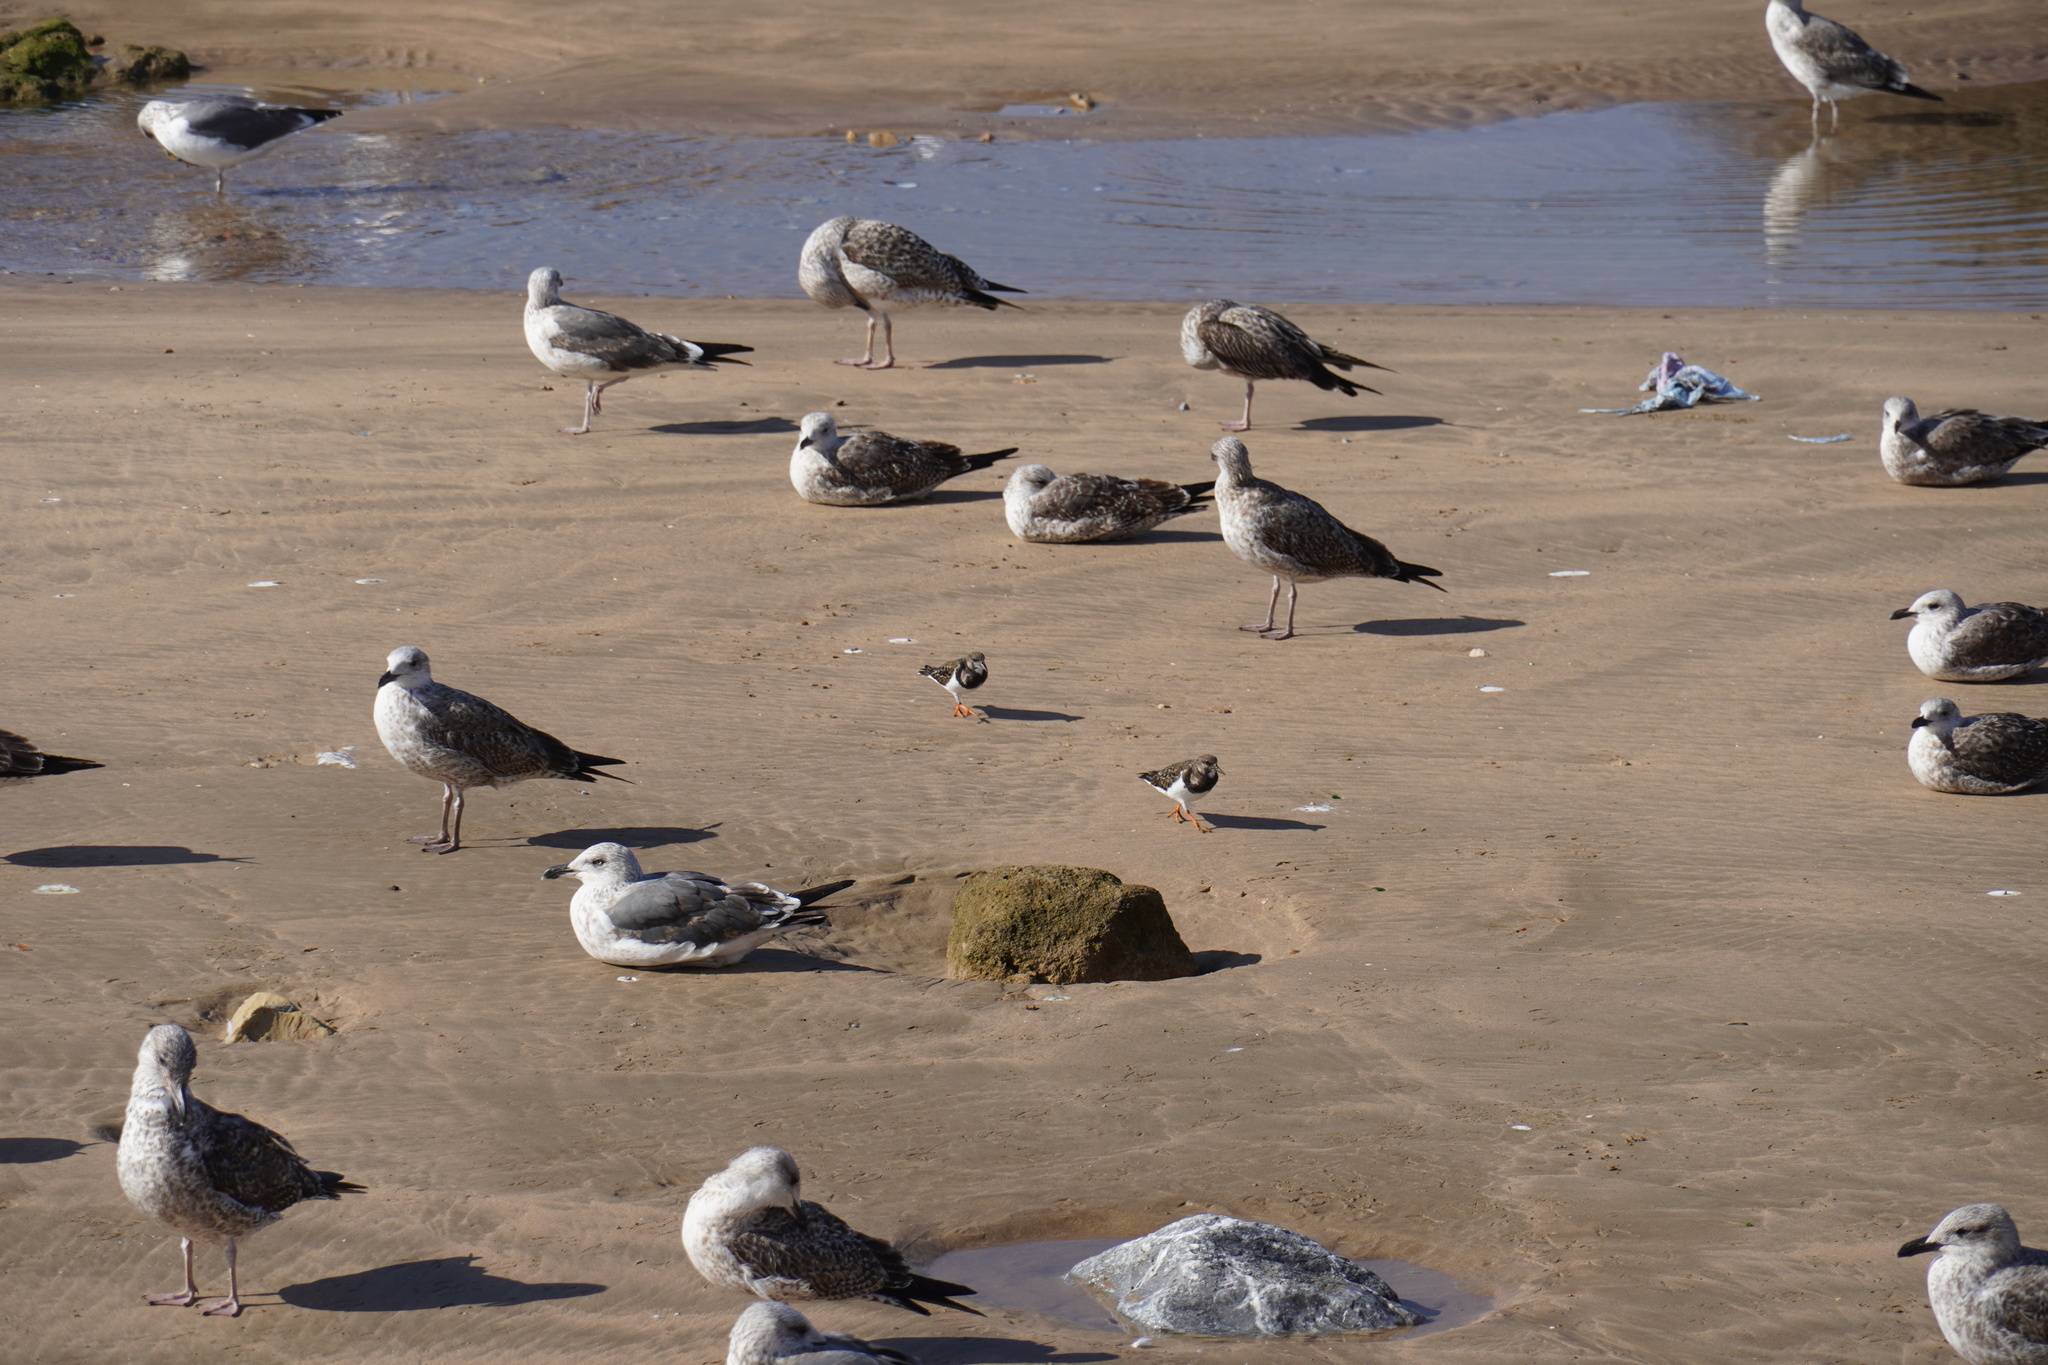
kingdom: Animalia
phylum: Chordata
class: Aves
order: Charadriiformes
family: Scolopacidae
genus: Arenaria
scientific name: Arenaria interpres
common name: Ruddy turnstone
